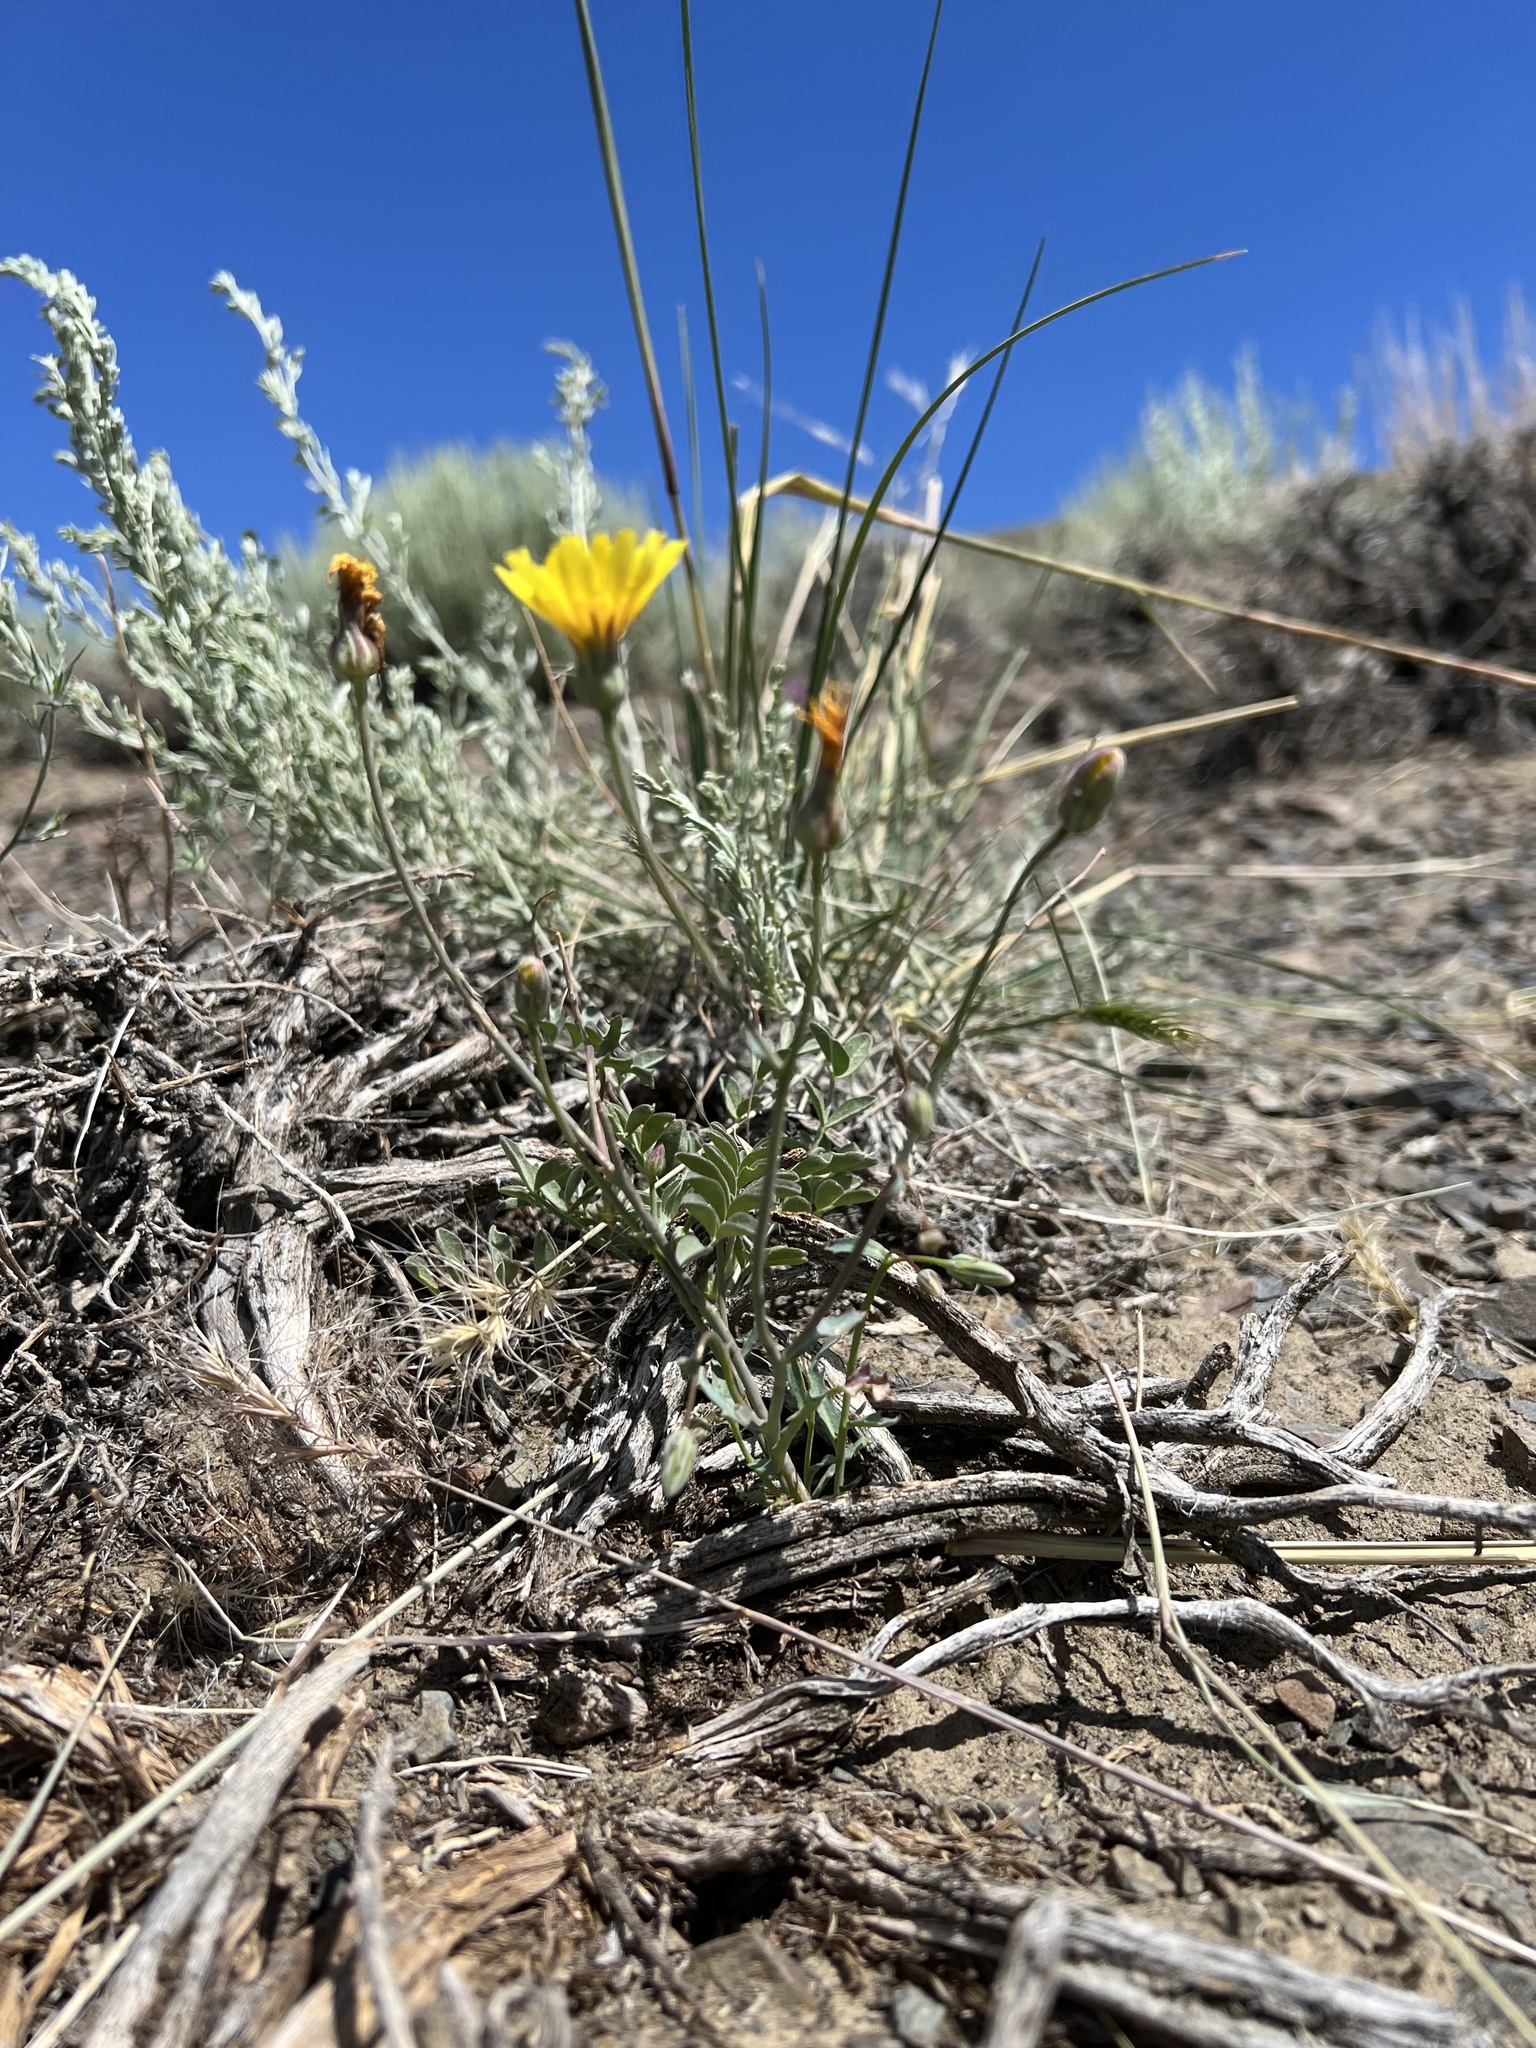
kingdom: Plantae
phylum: Tracheophyta
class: Magnoliopsida
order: Asterales
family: Asteraceae
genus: Malacothrix
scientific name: Malacothrix torreyi
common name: Torrey's desert-dandelion
